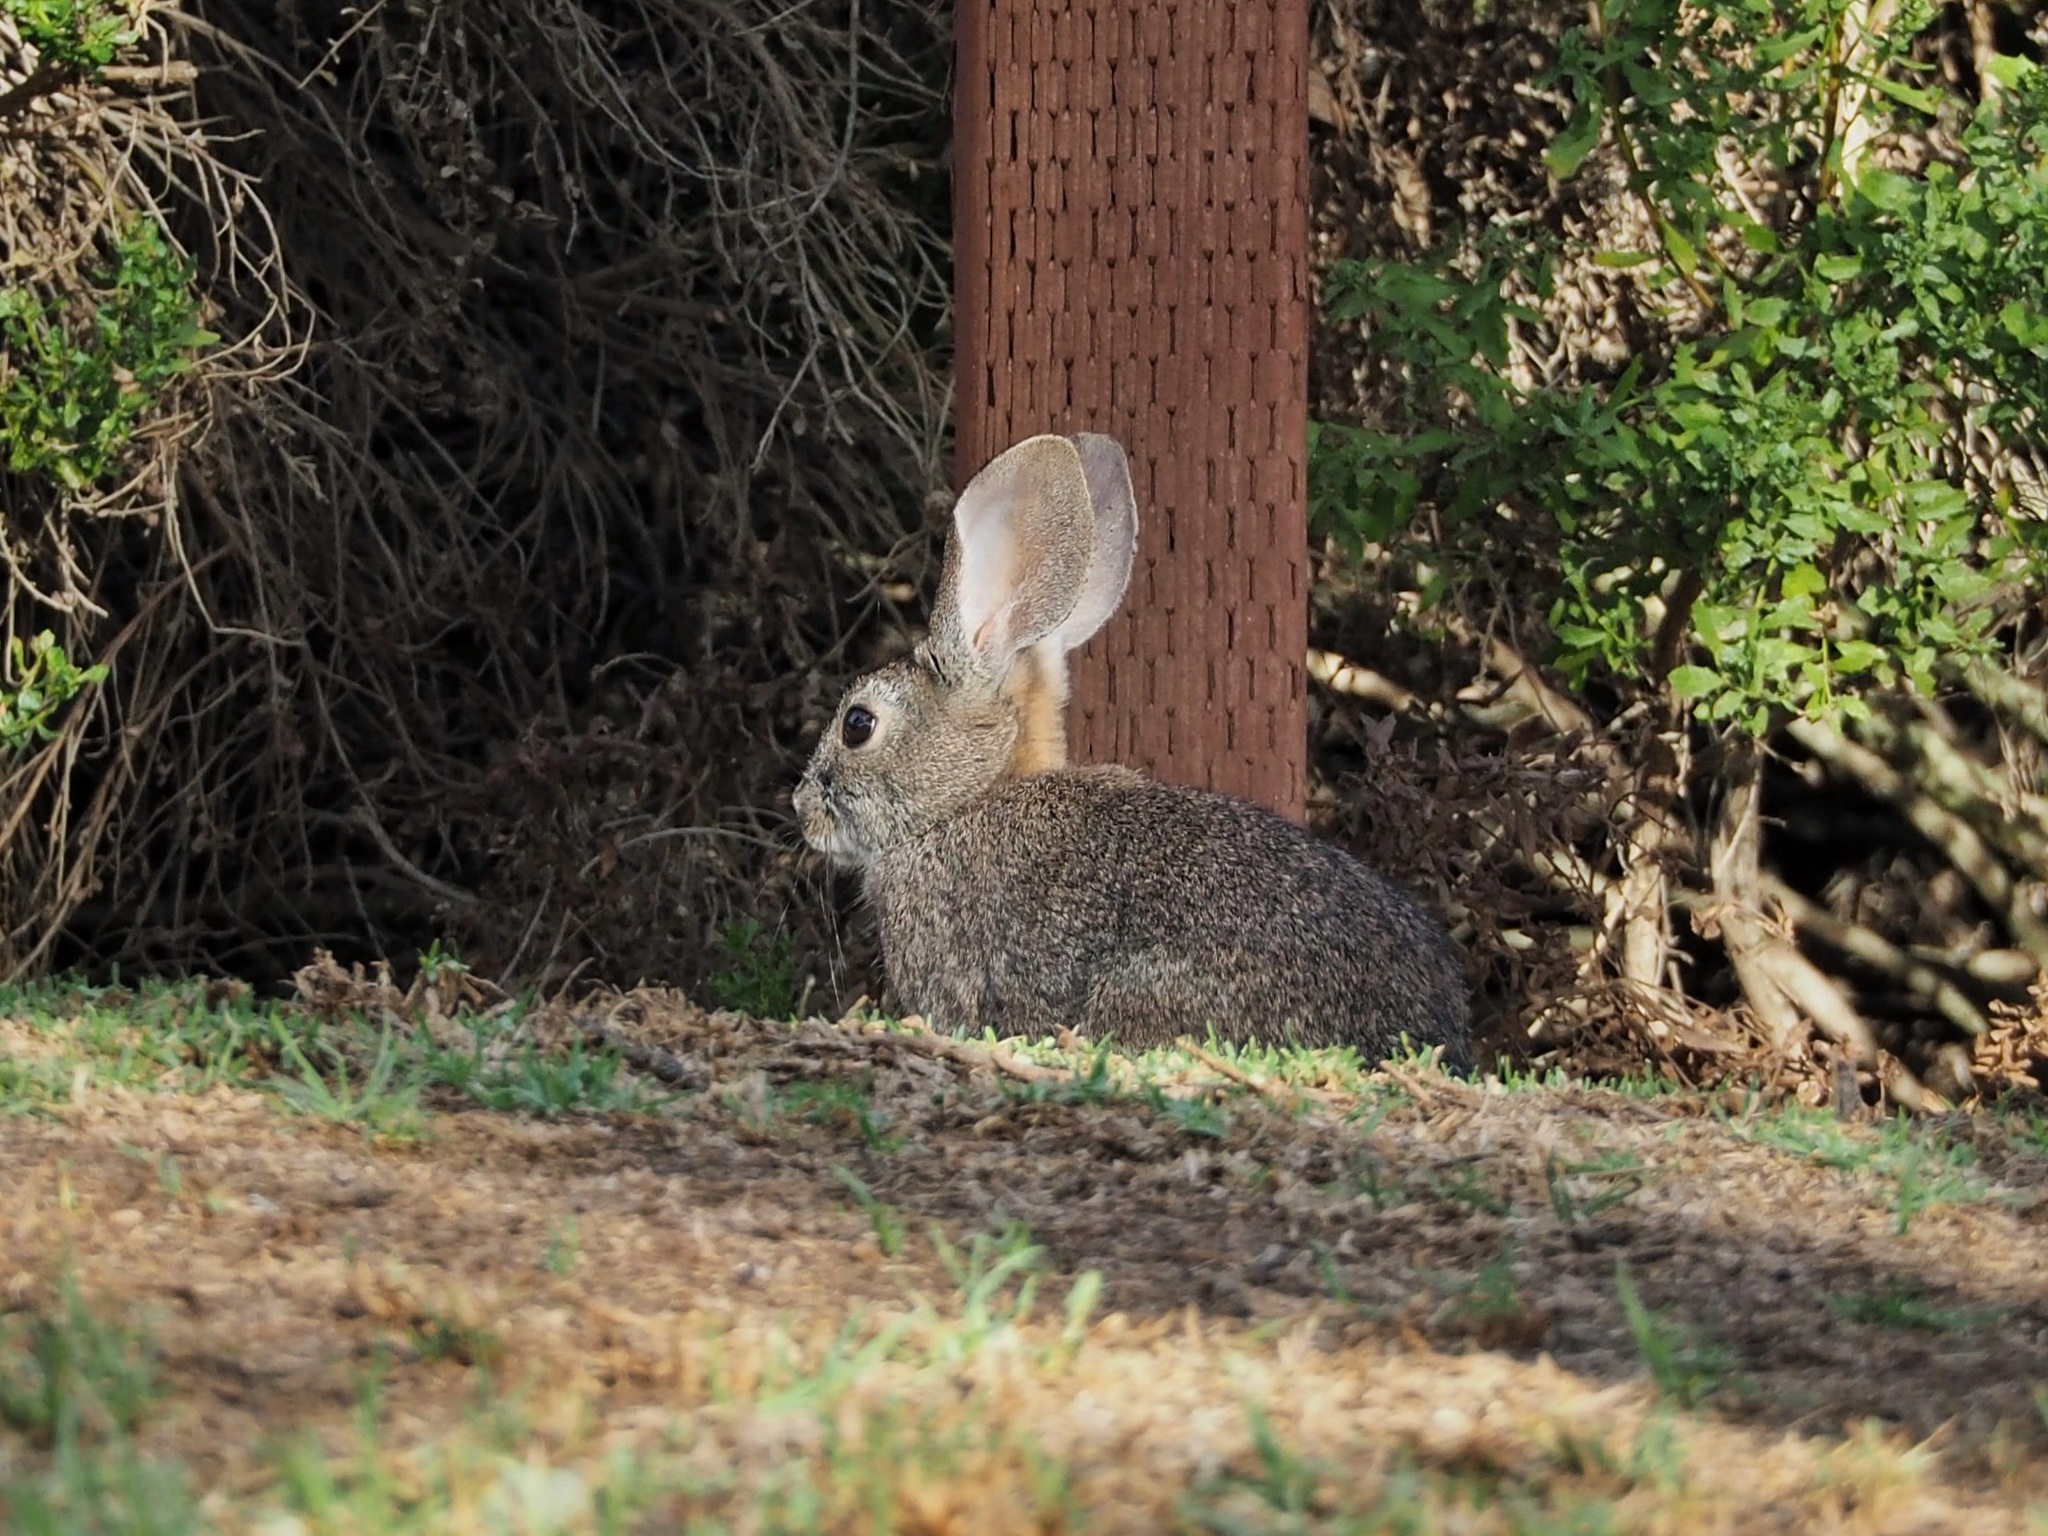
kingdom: Animalia
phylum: Chordata
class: Mammalia
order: Lagomorpha
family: Leporidae
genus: Sylvilagus
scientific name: Sylvilagus bachmani
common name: Brush rabbit
